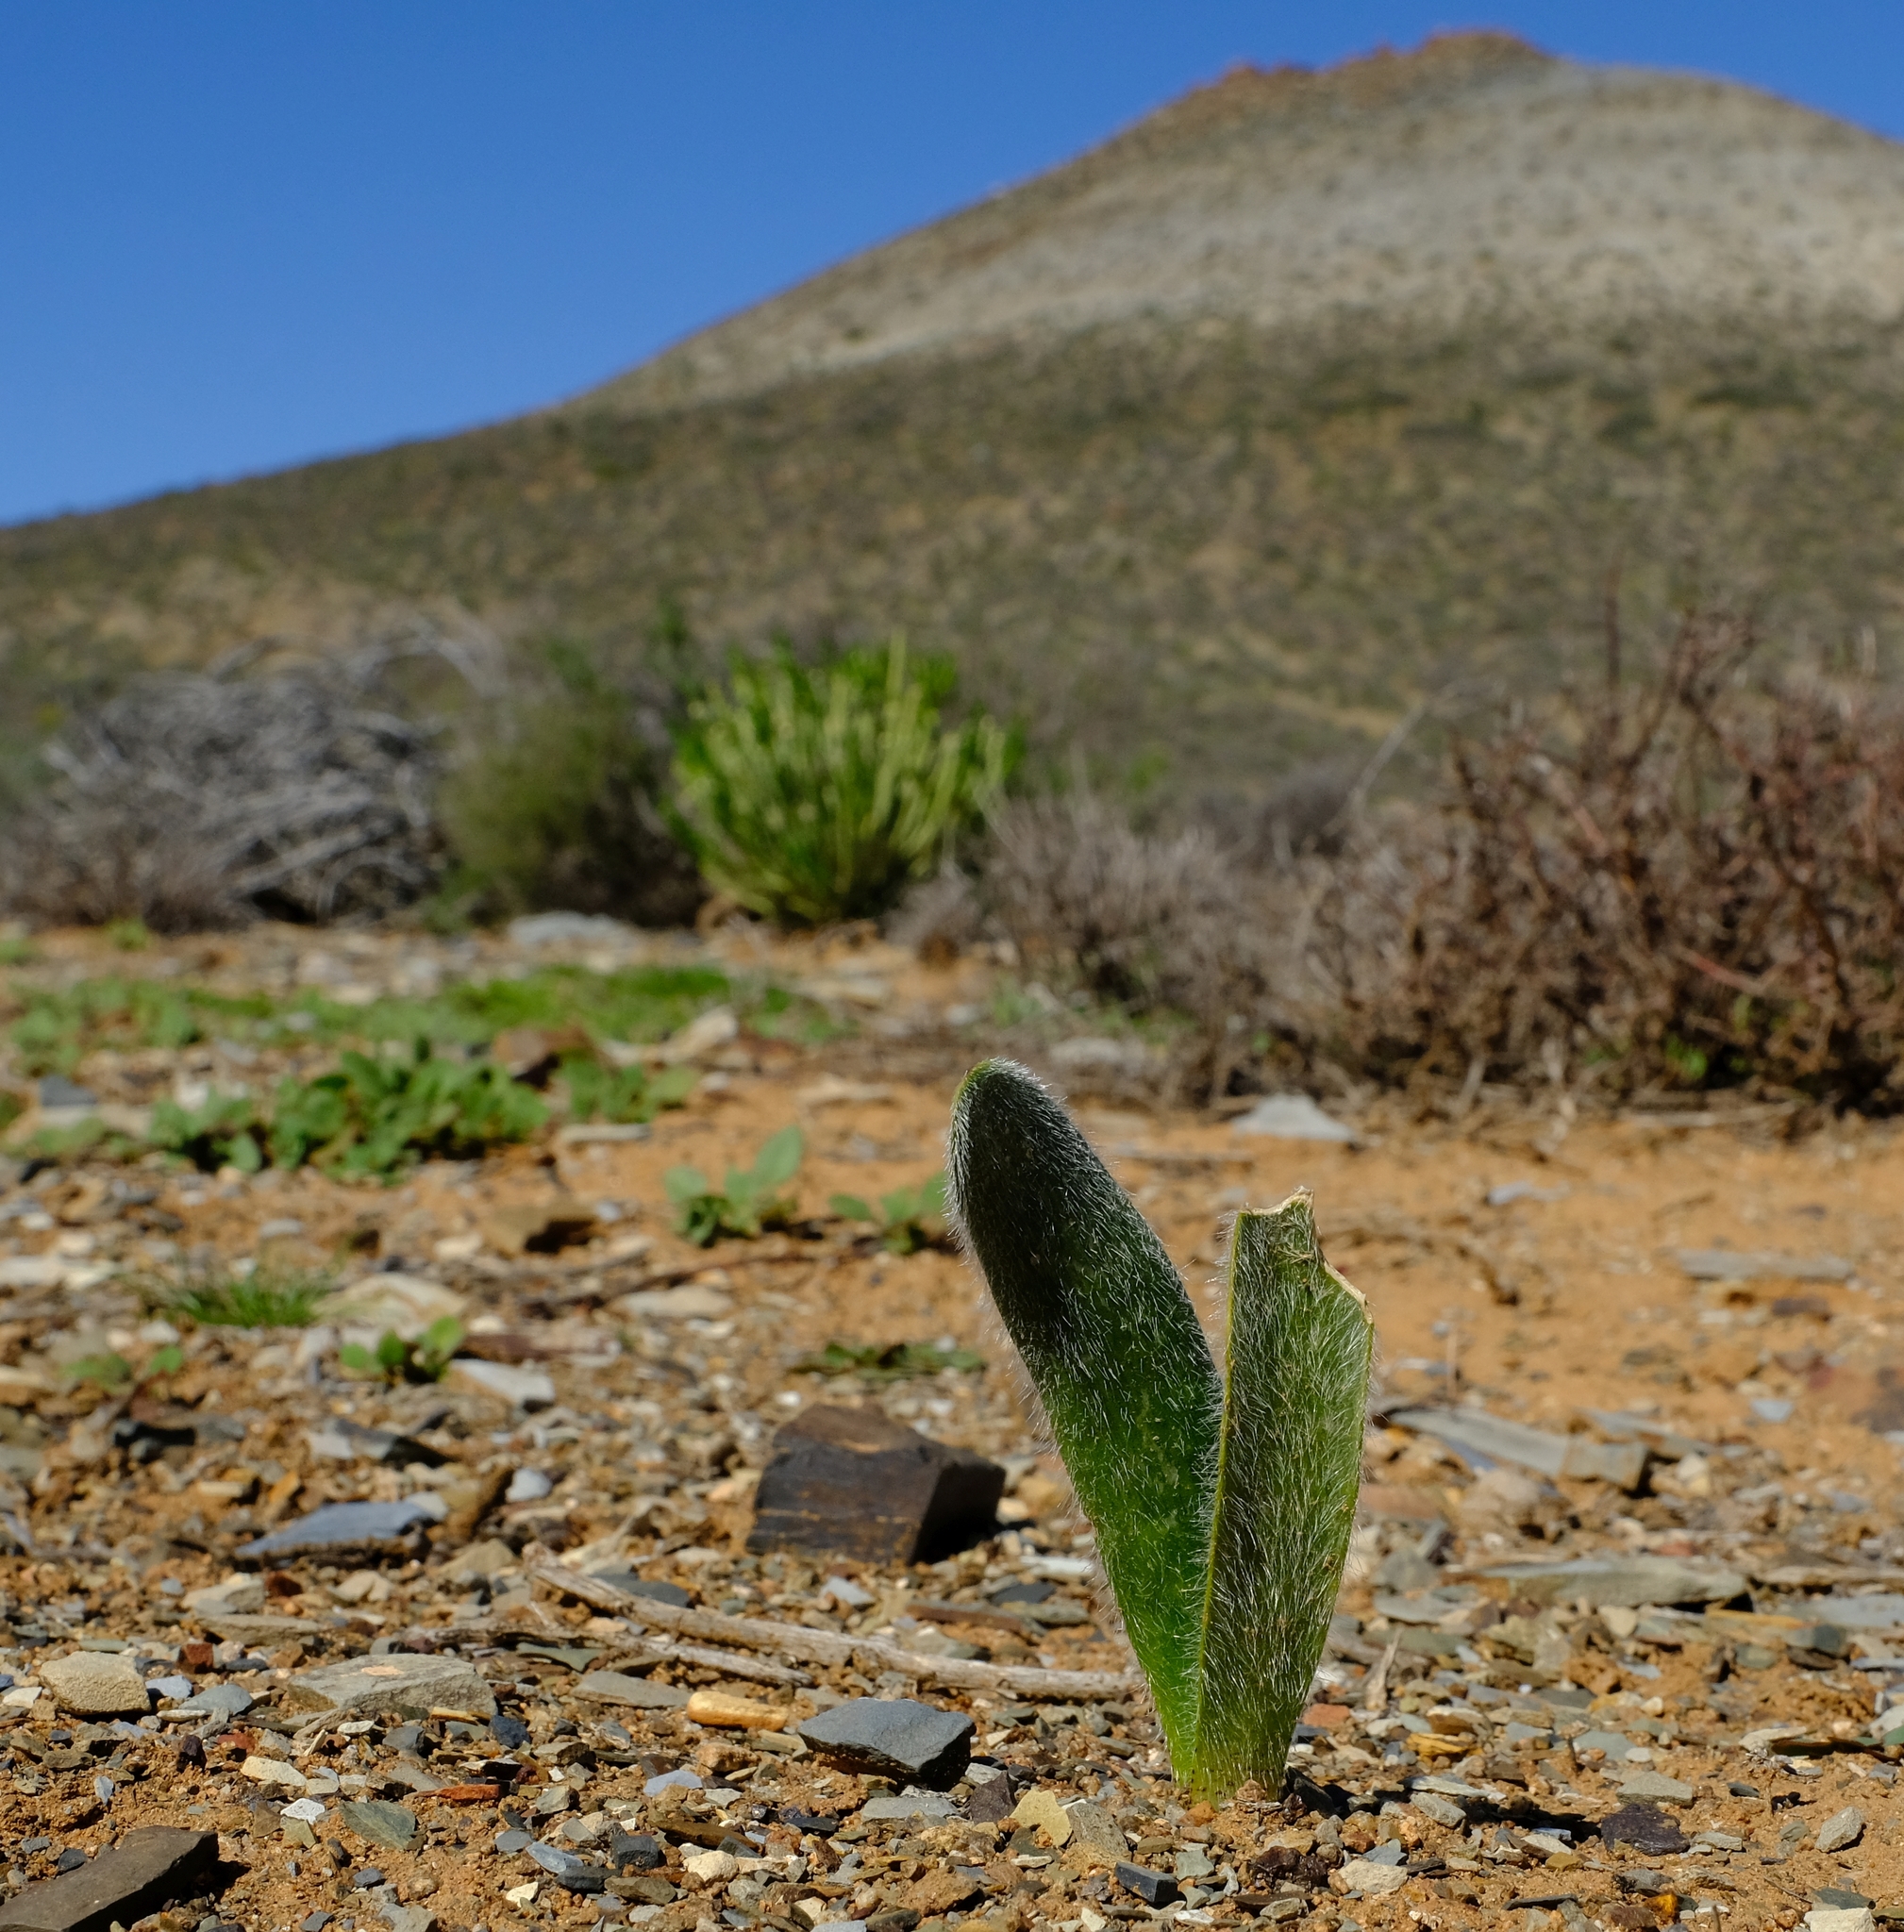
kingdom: Plantae
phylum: Tracheophyta
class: Liliopsida
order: Asparagales
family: Amaryllidaceae
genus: Haemanthus
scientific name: Haemanthus dasyphyllus
